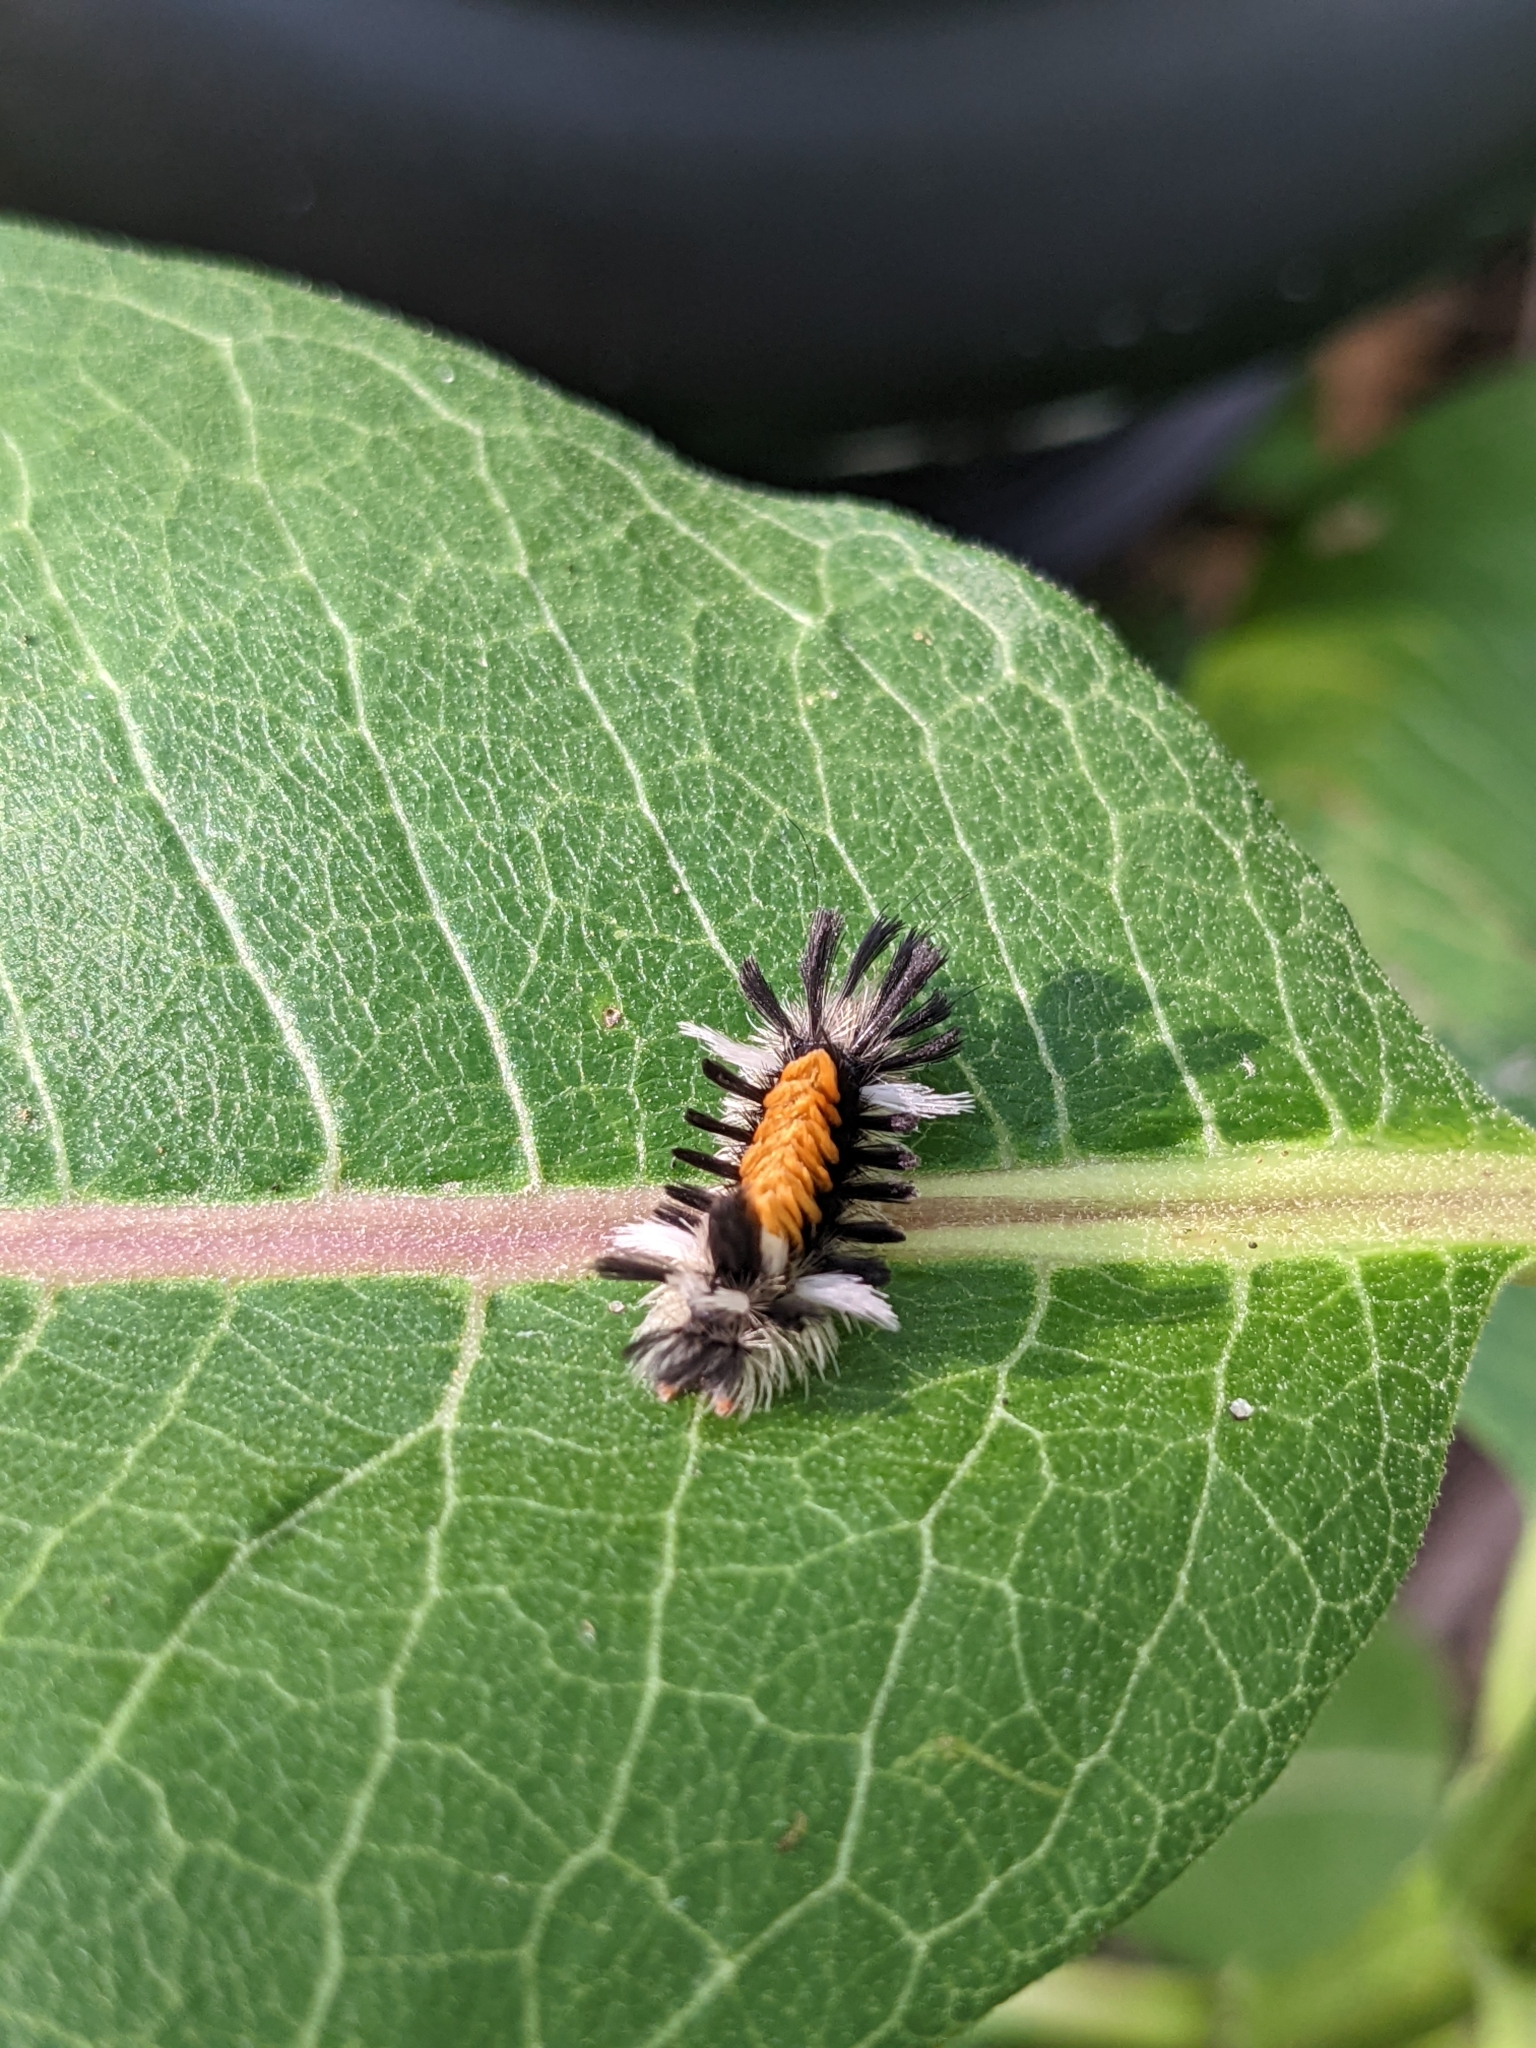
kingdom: Animalia
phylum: Arthropoda
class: Insecta
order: Lepidoptera
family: Erebidae
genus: Euchaetes
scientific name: Euchaetes egle
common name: Milkweed tussock moth
